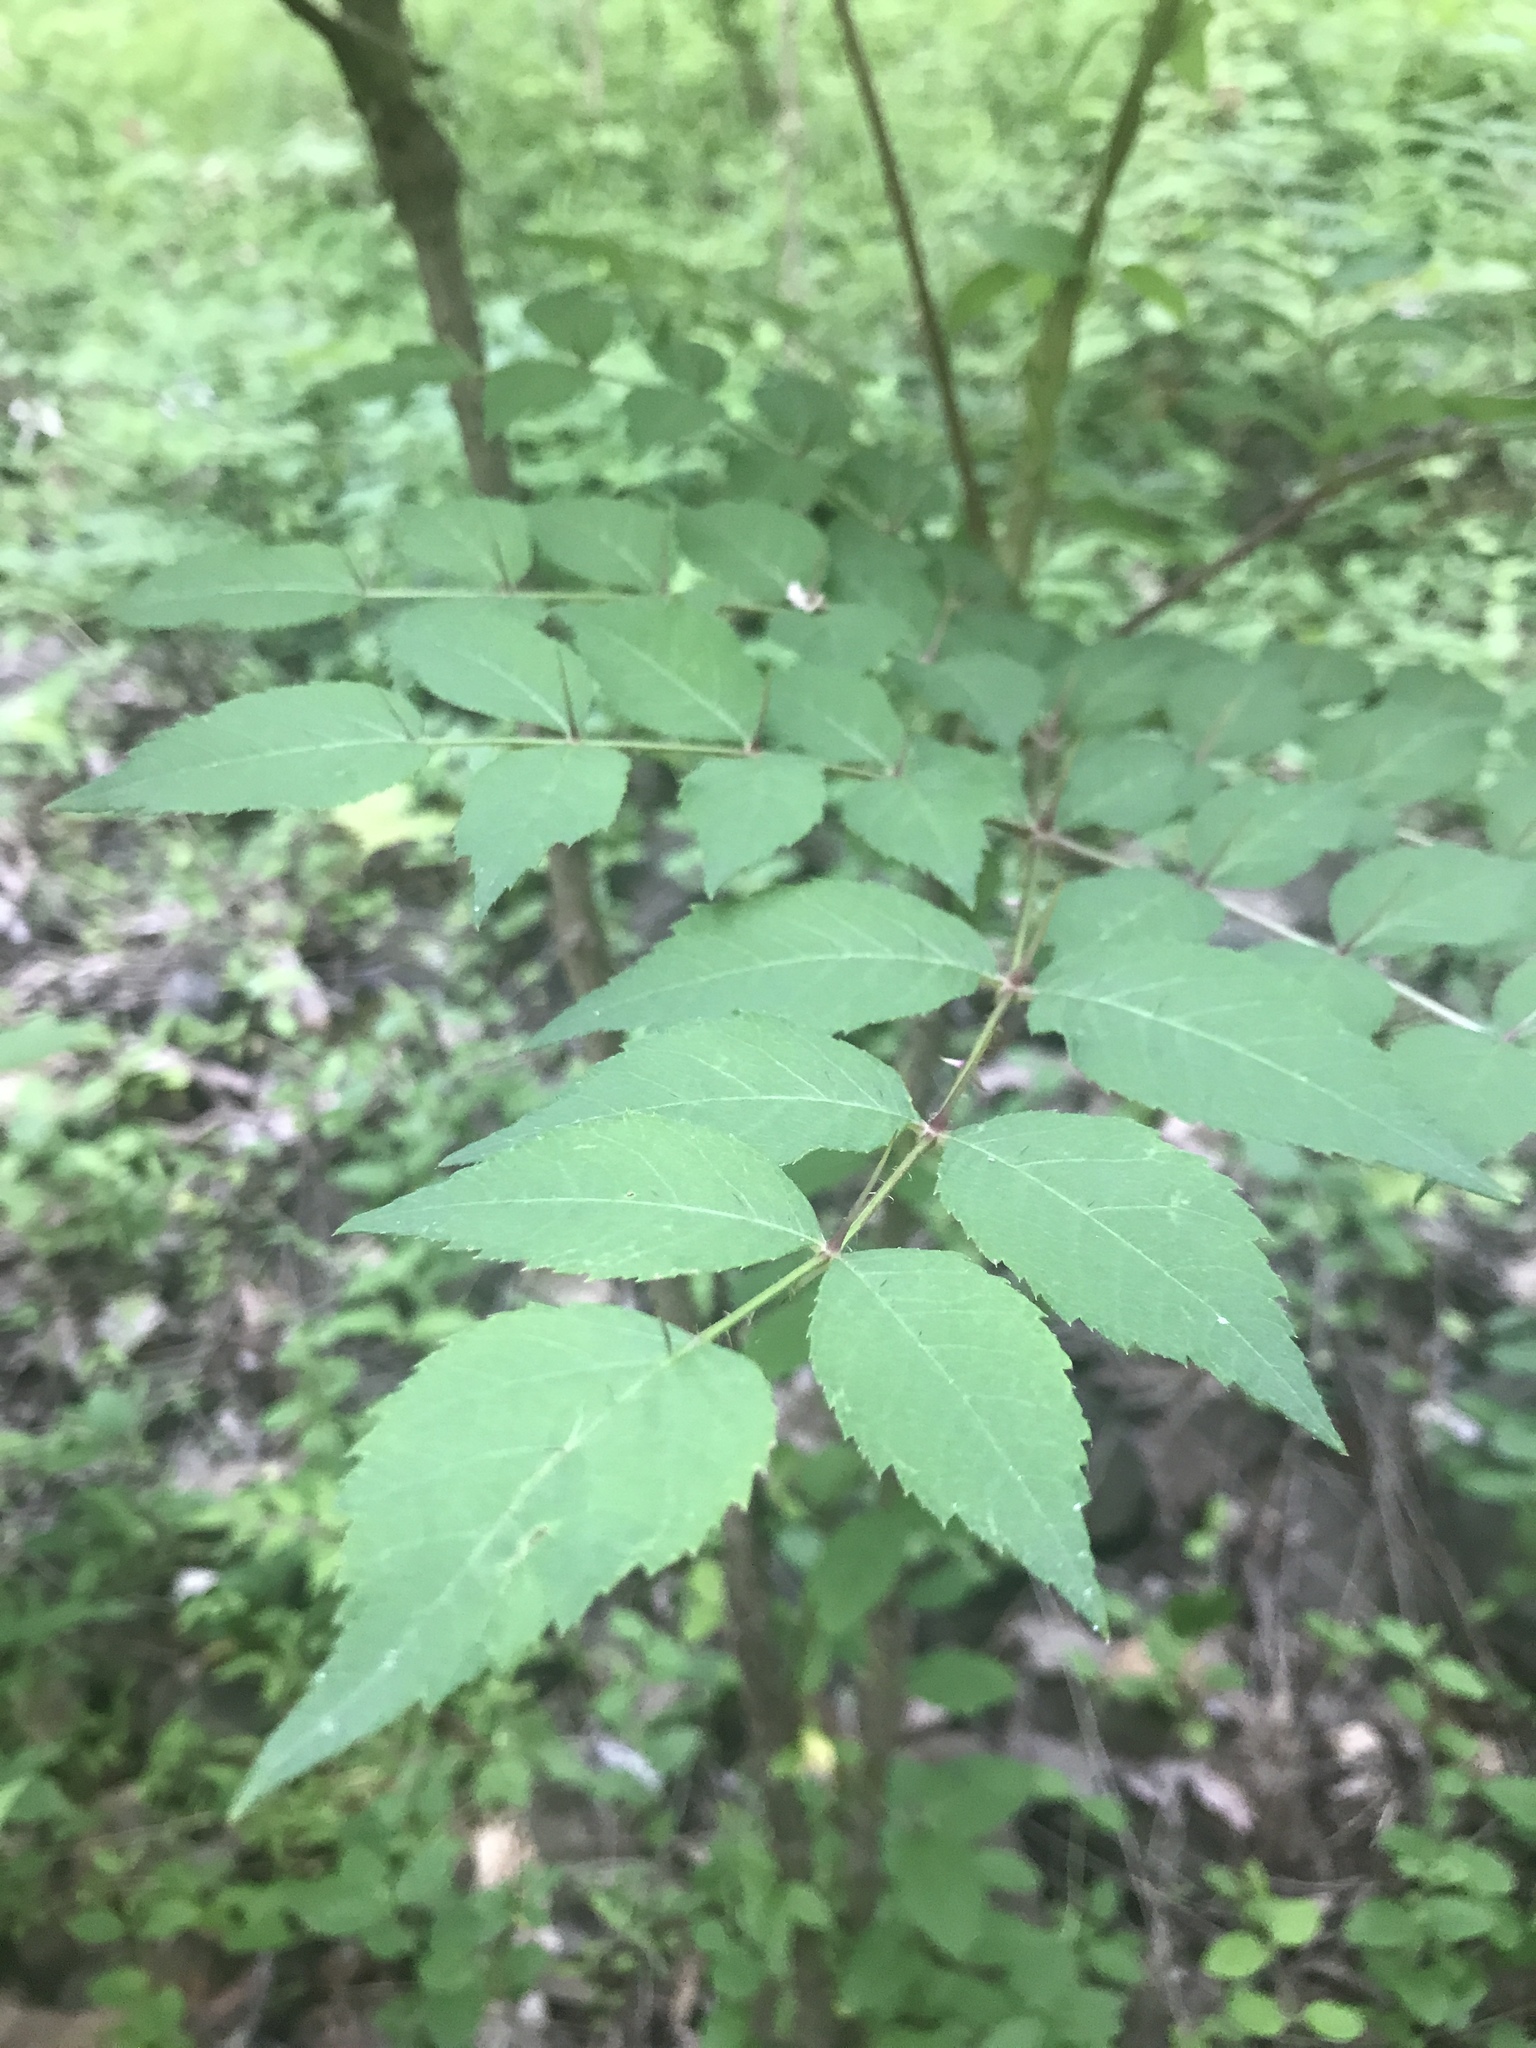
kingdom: Plantae
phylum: Tracheophyta
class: Magnoliopsida
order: Apiales
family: Araliaceae
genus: Aralia
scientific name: Aralia elata
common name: Japanese angelica-tree
